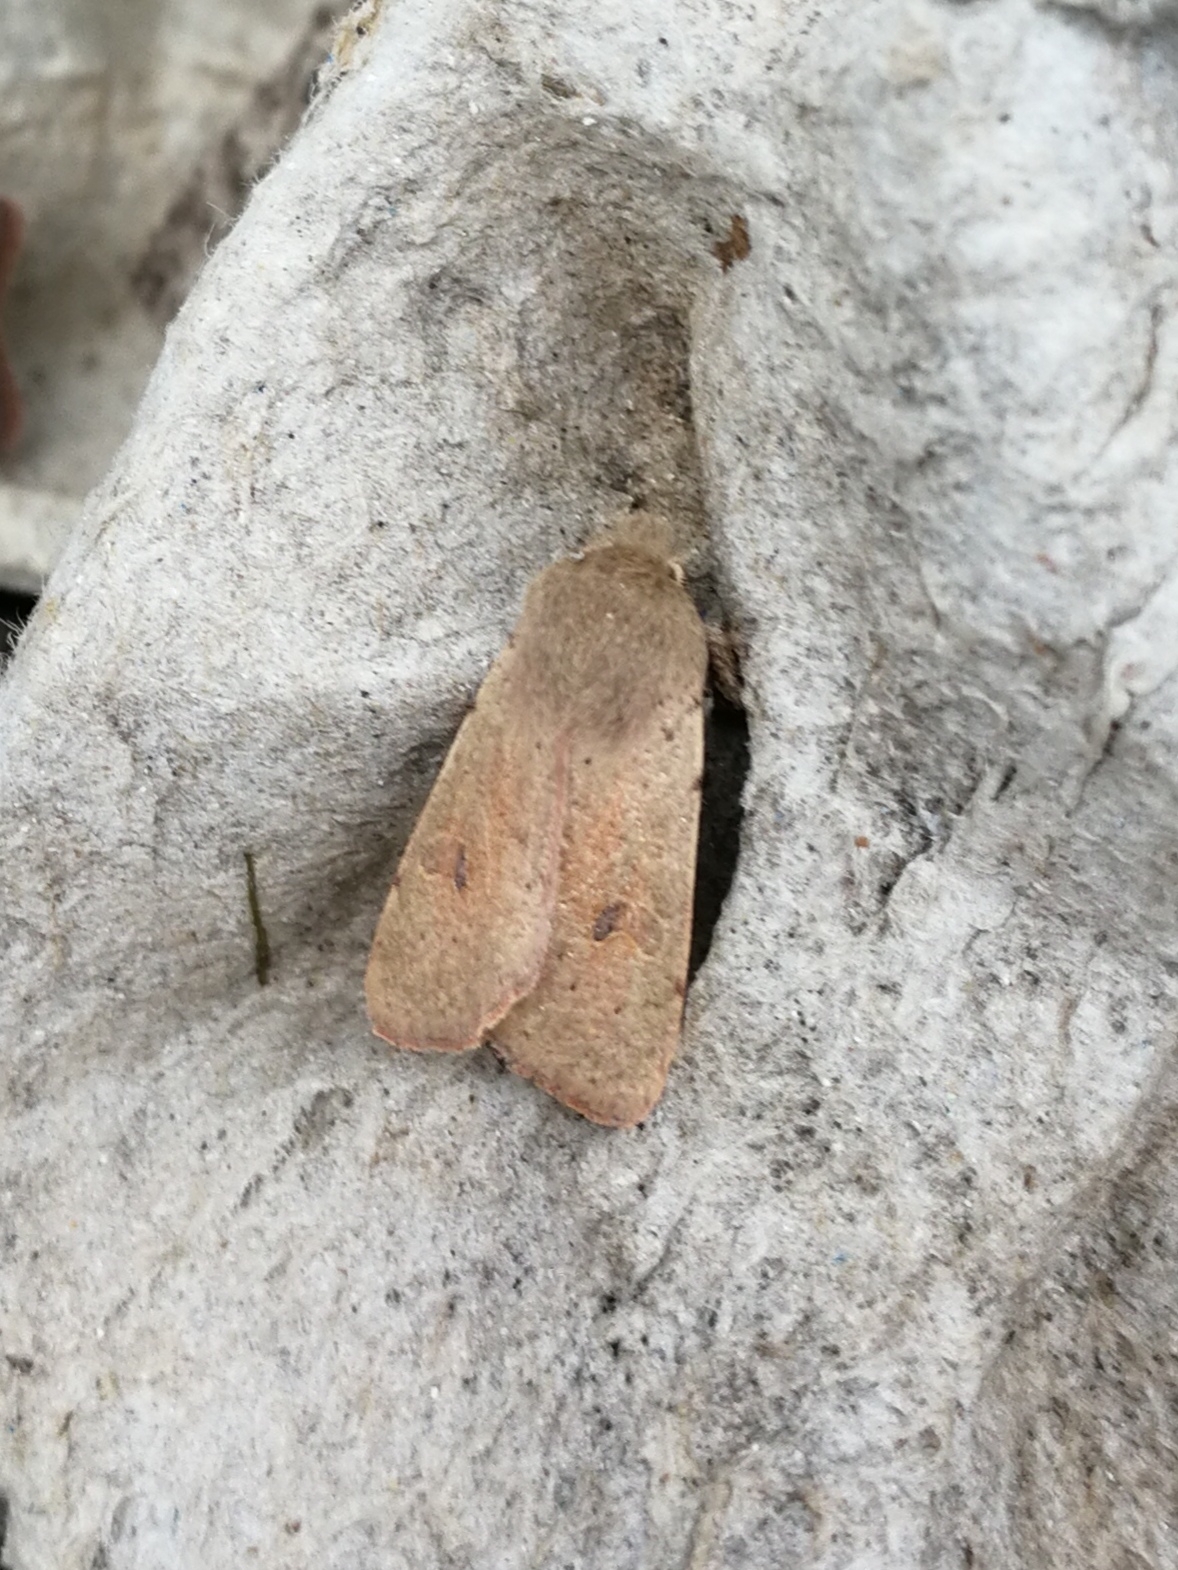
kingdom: Animalia
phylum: Arthropoda
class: Insecta
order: Lepidoptera
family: Noctuidae
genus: Orthosia
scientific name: Orthosia cruda
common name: Small quaker
